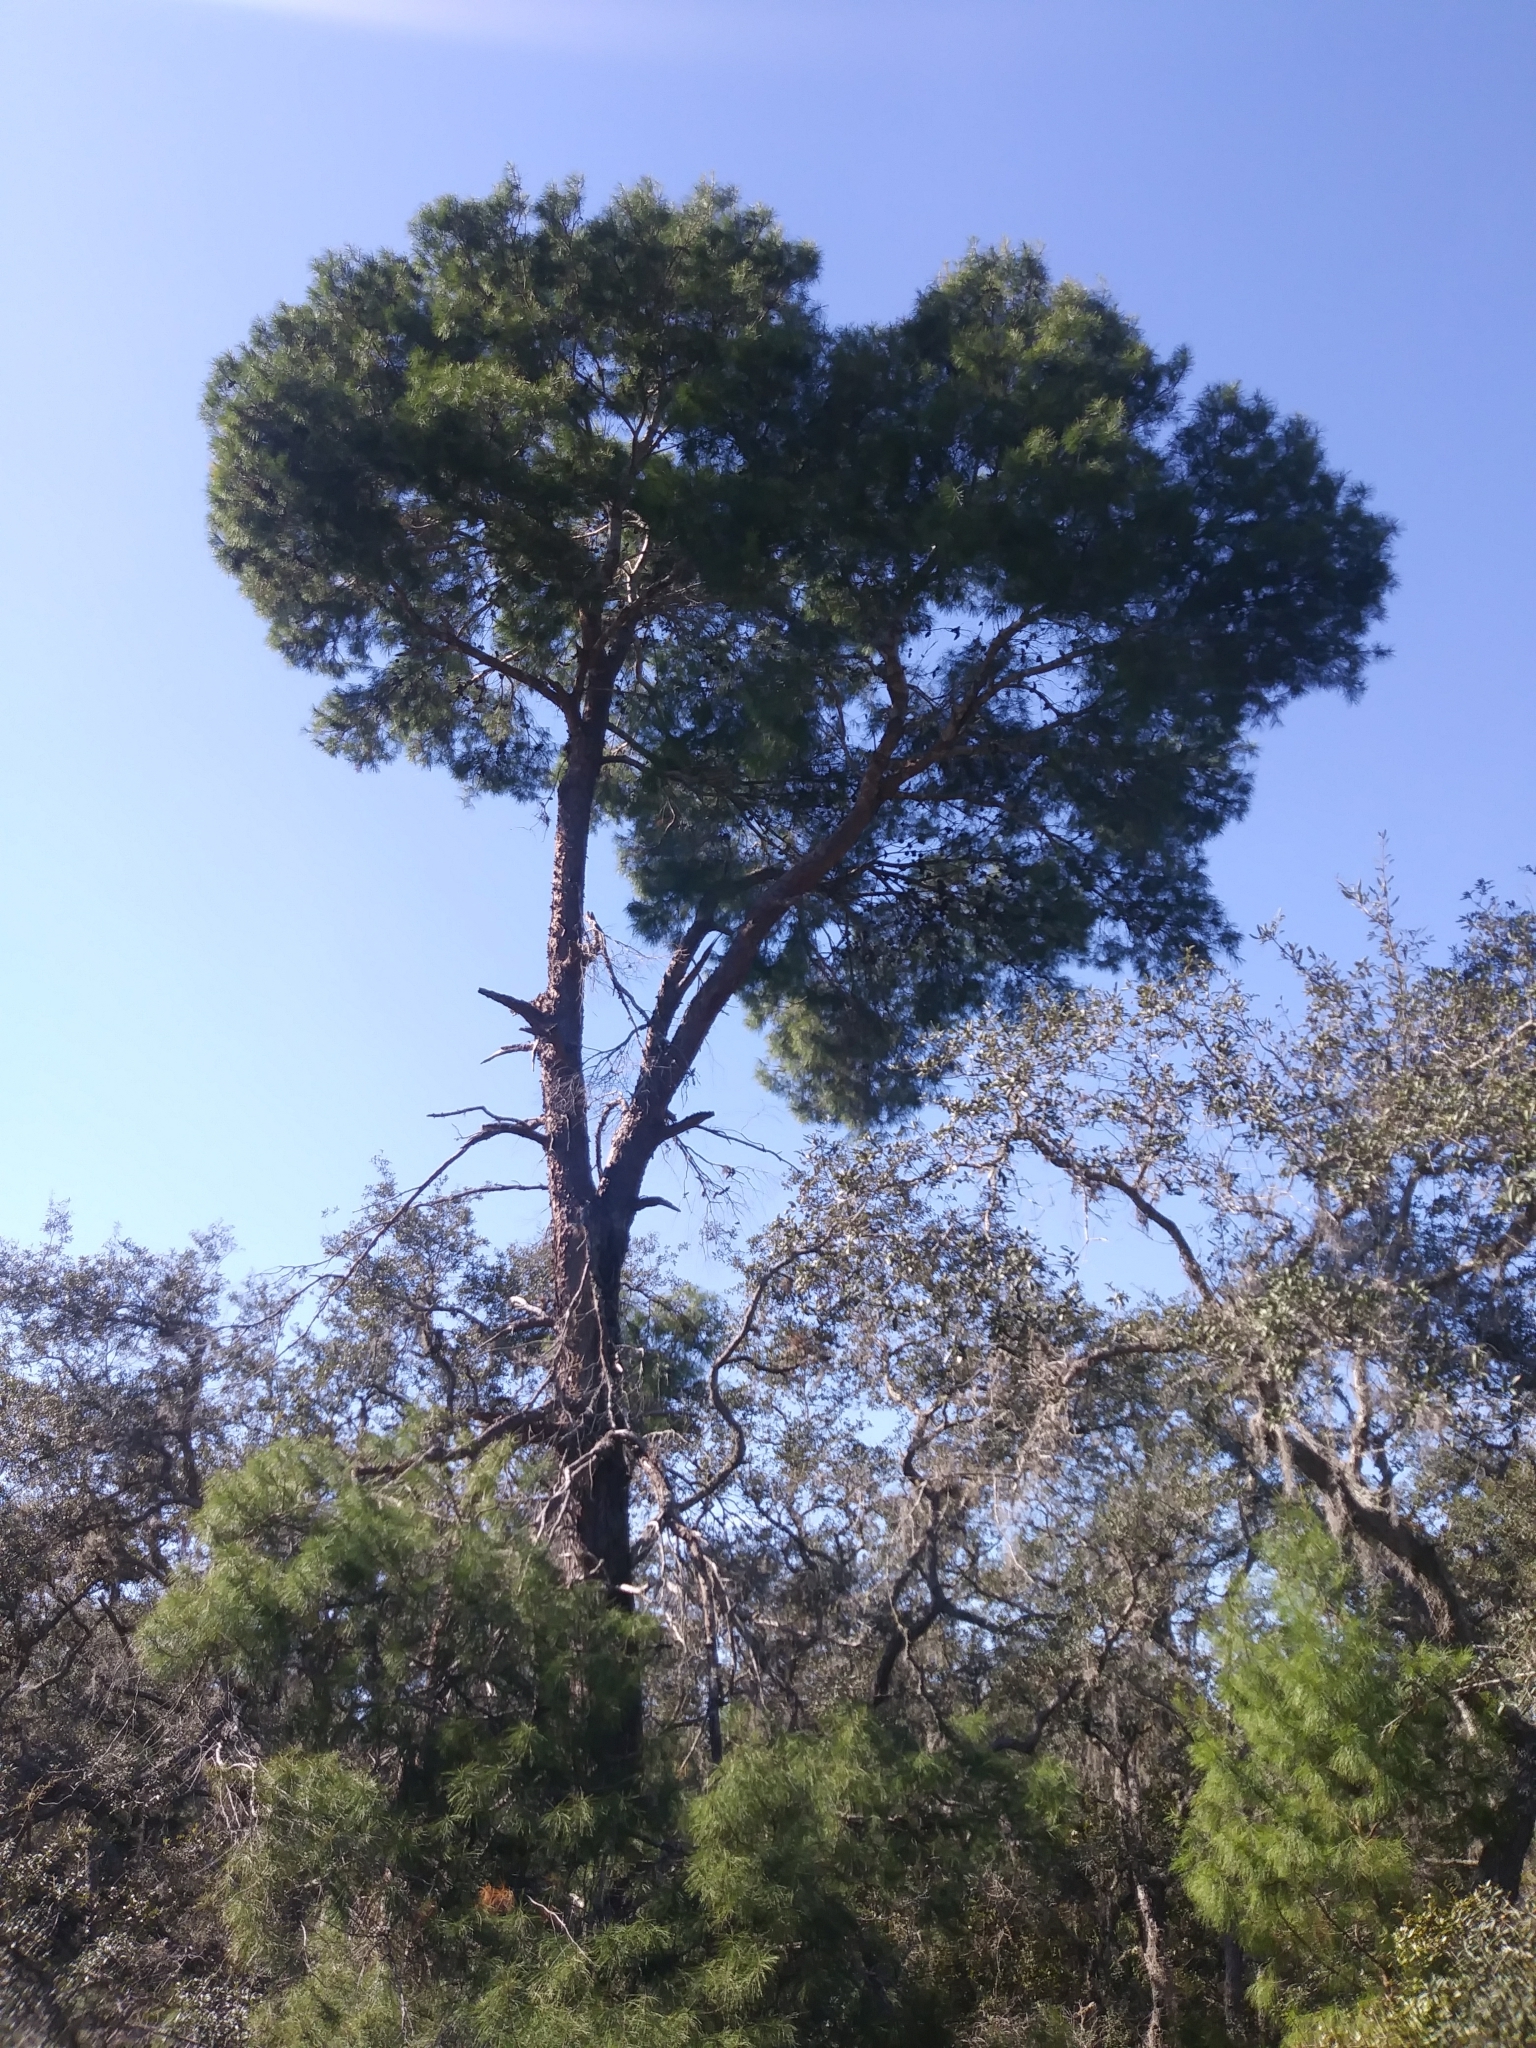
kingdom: Plantae
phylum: Tracheophyta
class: Pinopsida
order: Pinales
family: Pinaceae
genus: Pinus
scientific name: Pinus clausa
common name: Sand pine
